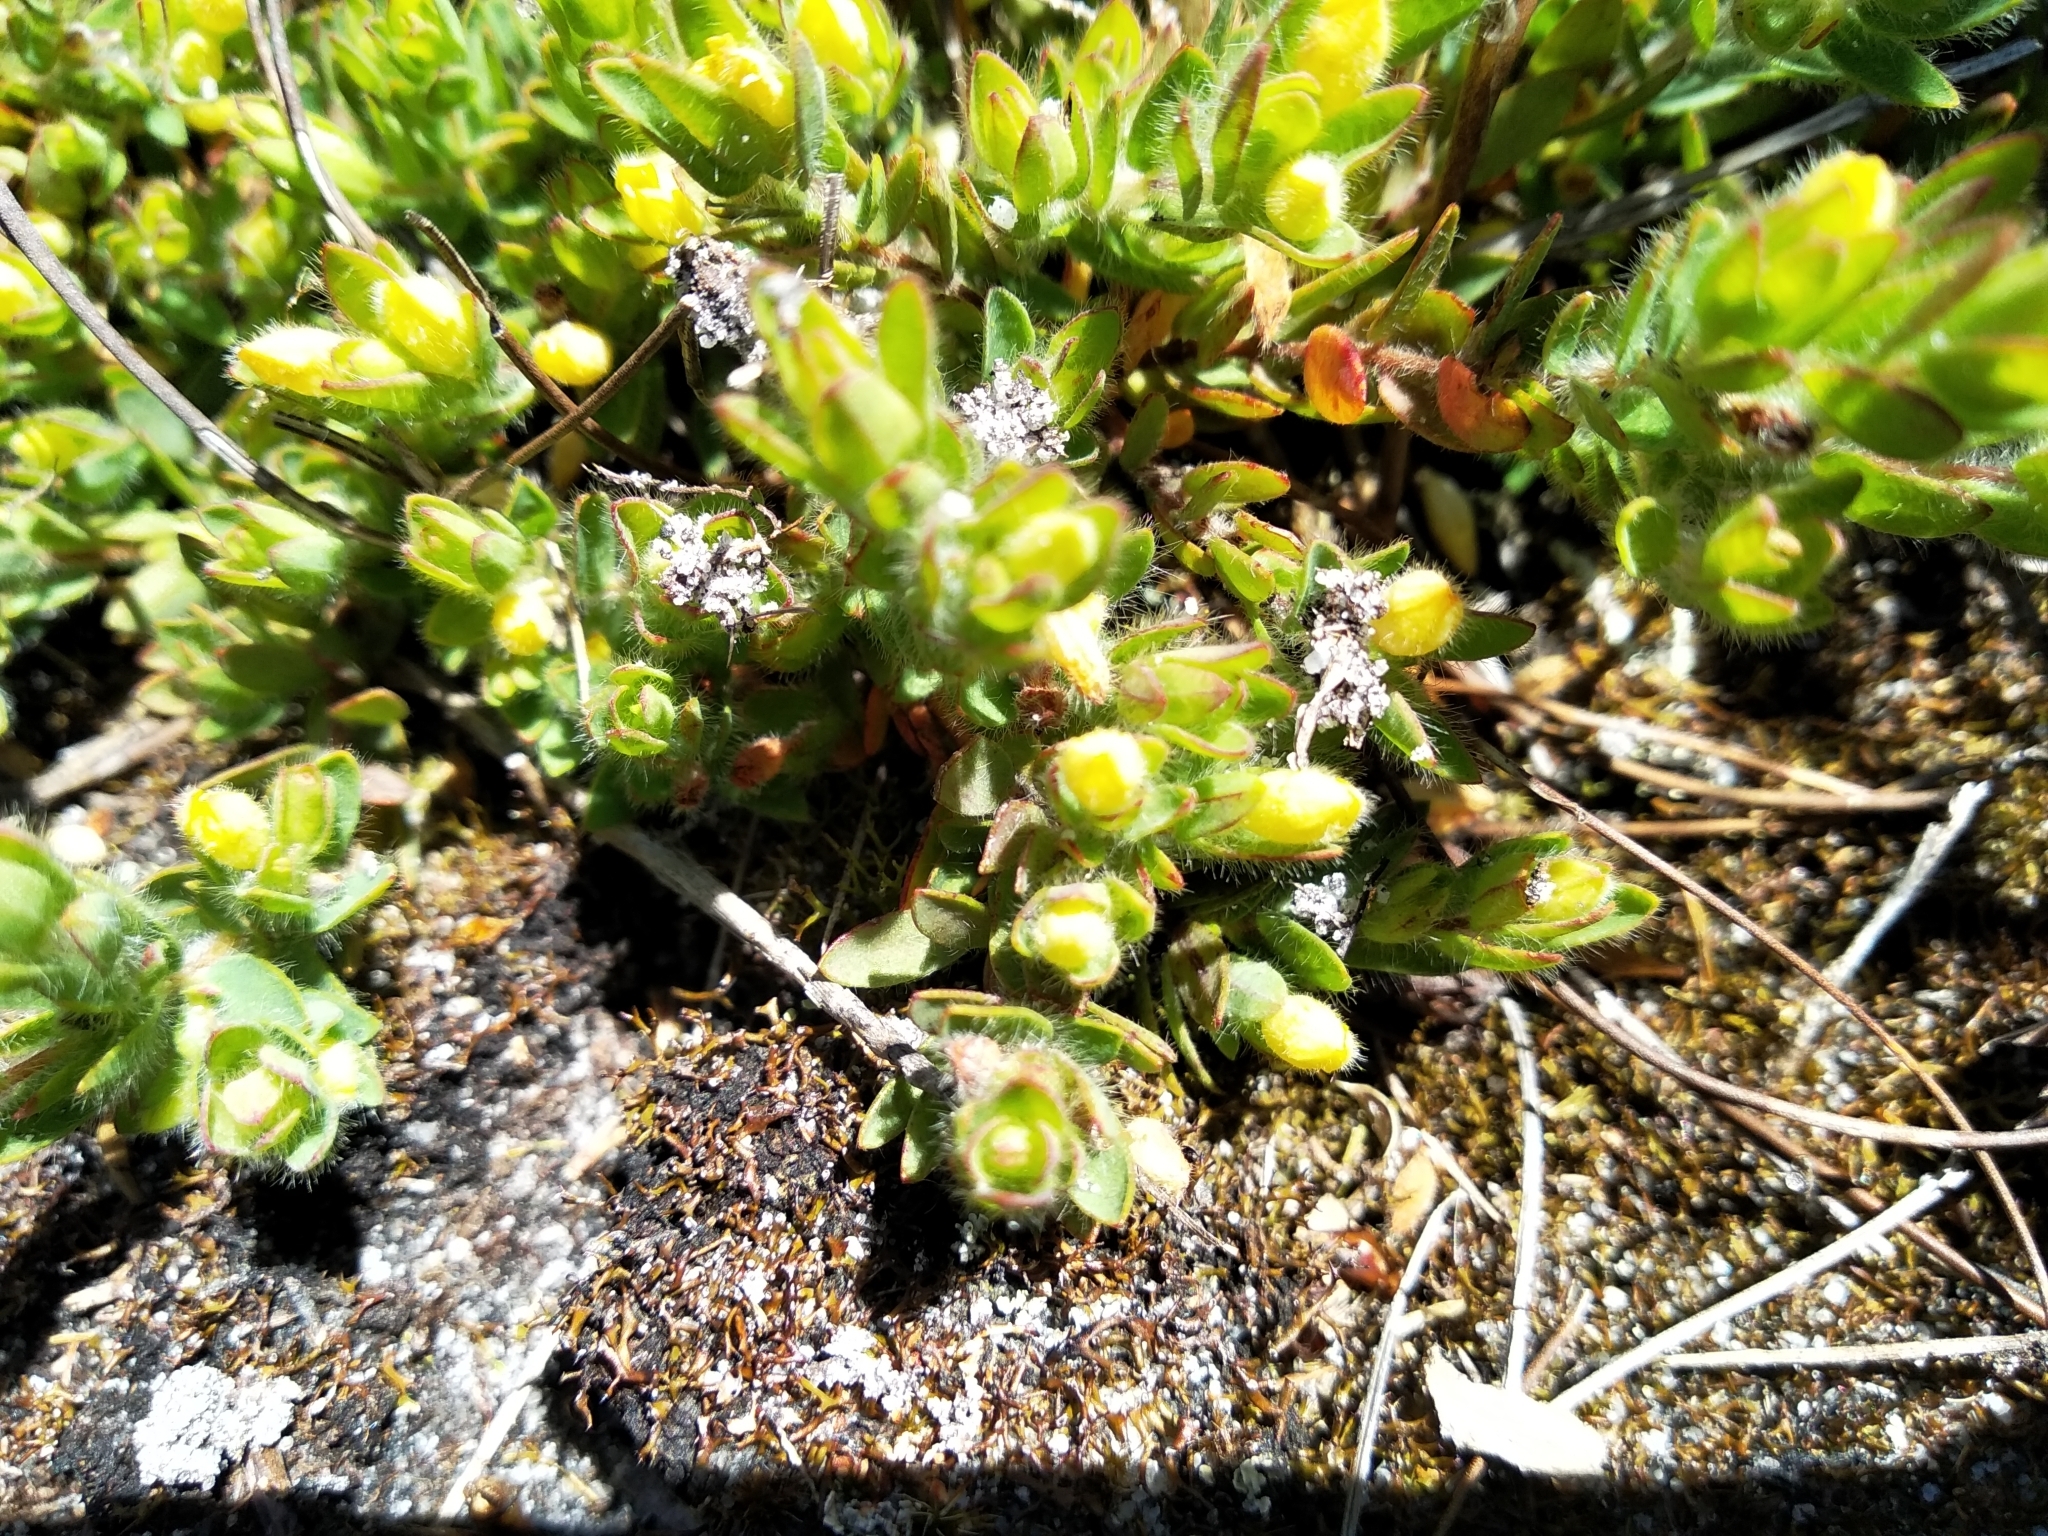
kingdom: Plantae
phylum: Tracheophyta
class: Magnoliopsida
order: Malvales
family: Thymelaeaceae
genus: Gnidia
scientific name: Gnidia humilis
